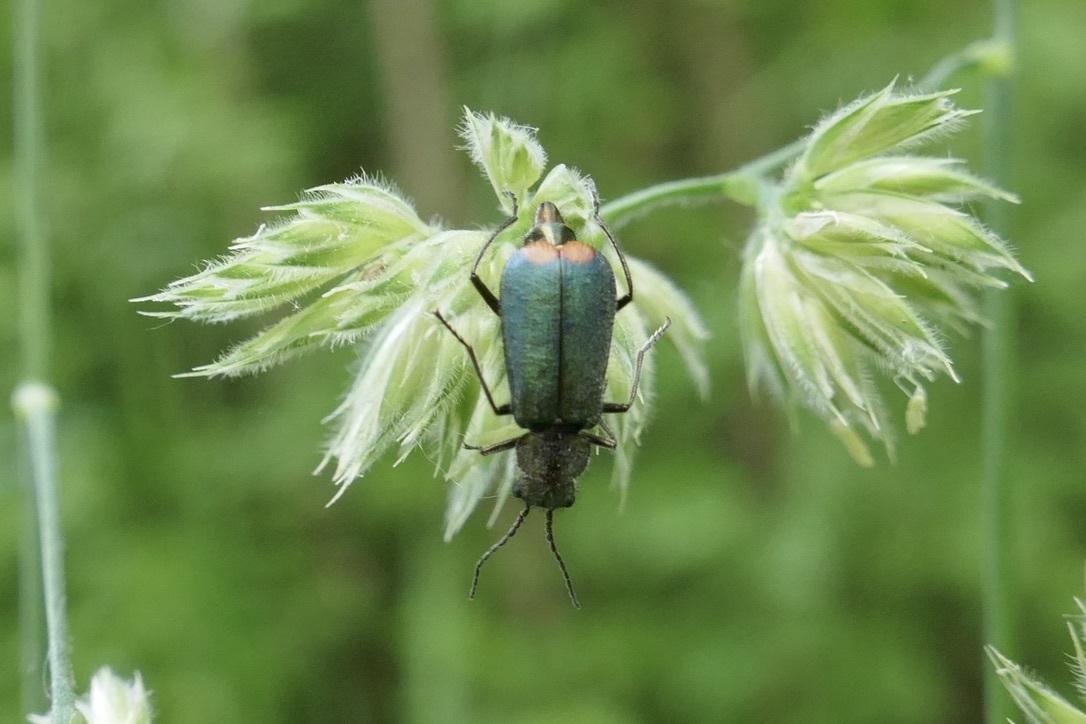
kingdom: Animalia
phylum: Arthropoda
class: Insecta
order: Coleoptera
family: Melyridae
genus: Malachius
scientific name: Malachius bipustulatus
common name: Malachite beetle
